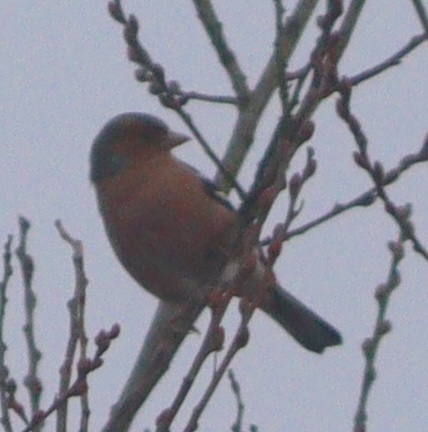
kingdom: Animalia
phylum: Chordata
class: Aves
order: Passeriformes
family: Fringillidae
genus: Fringilla
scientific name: Fringilla coelebs
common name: Common chaffinch
